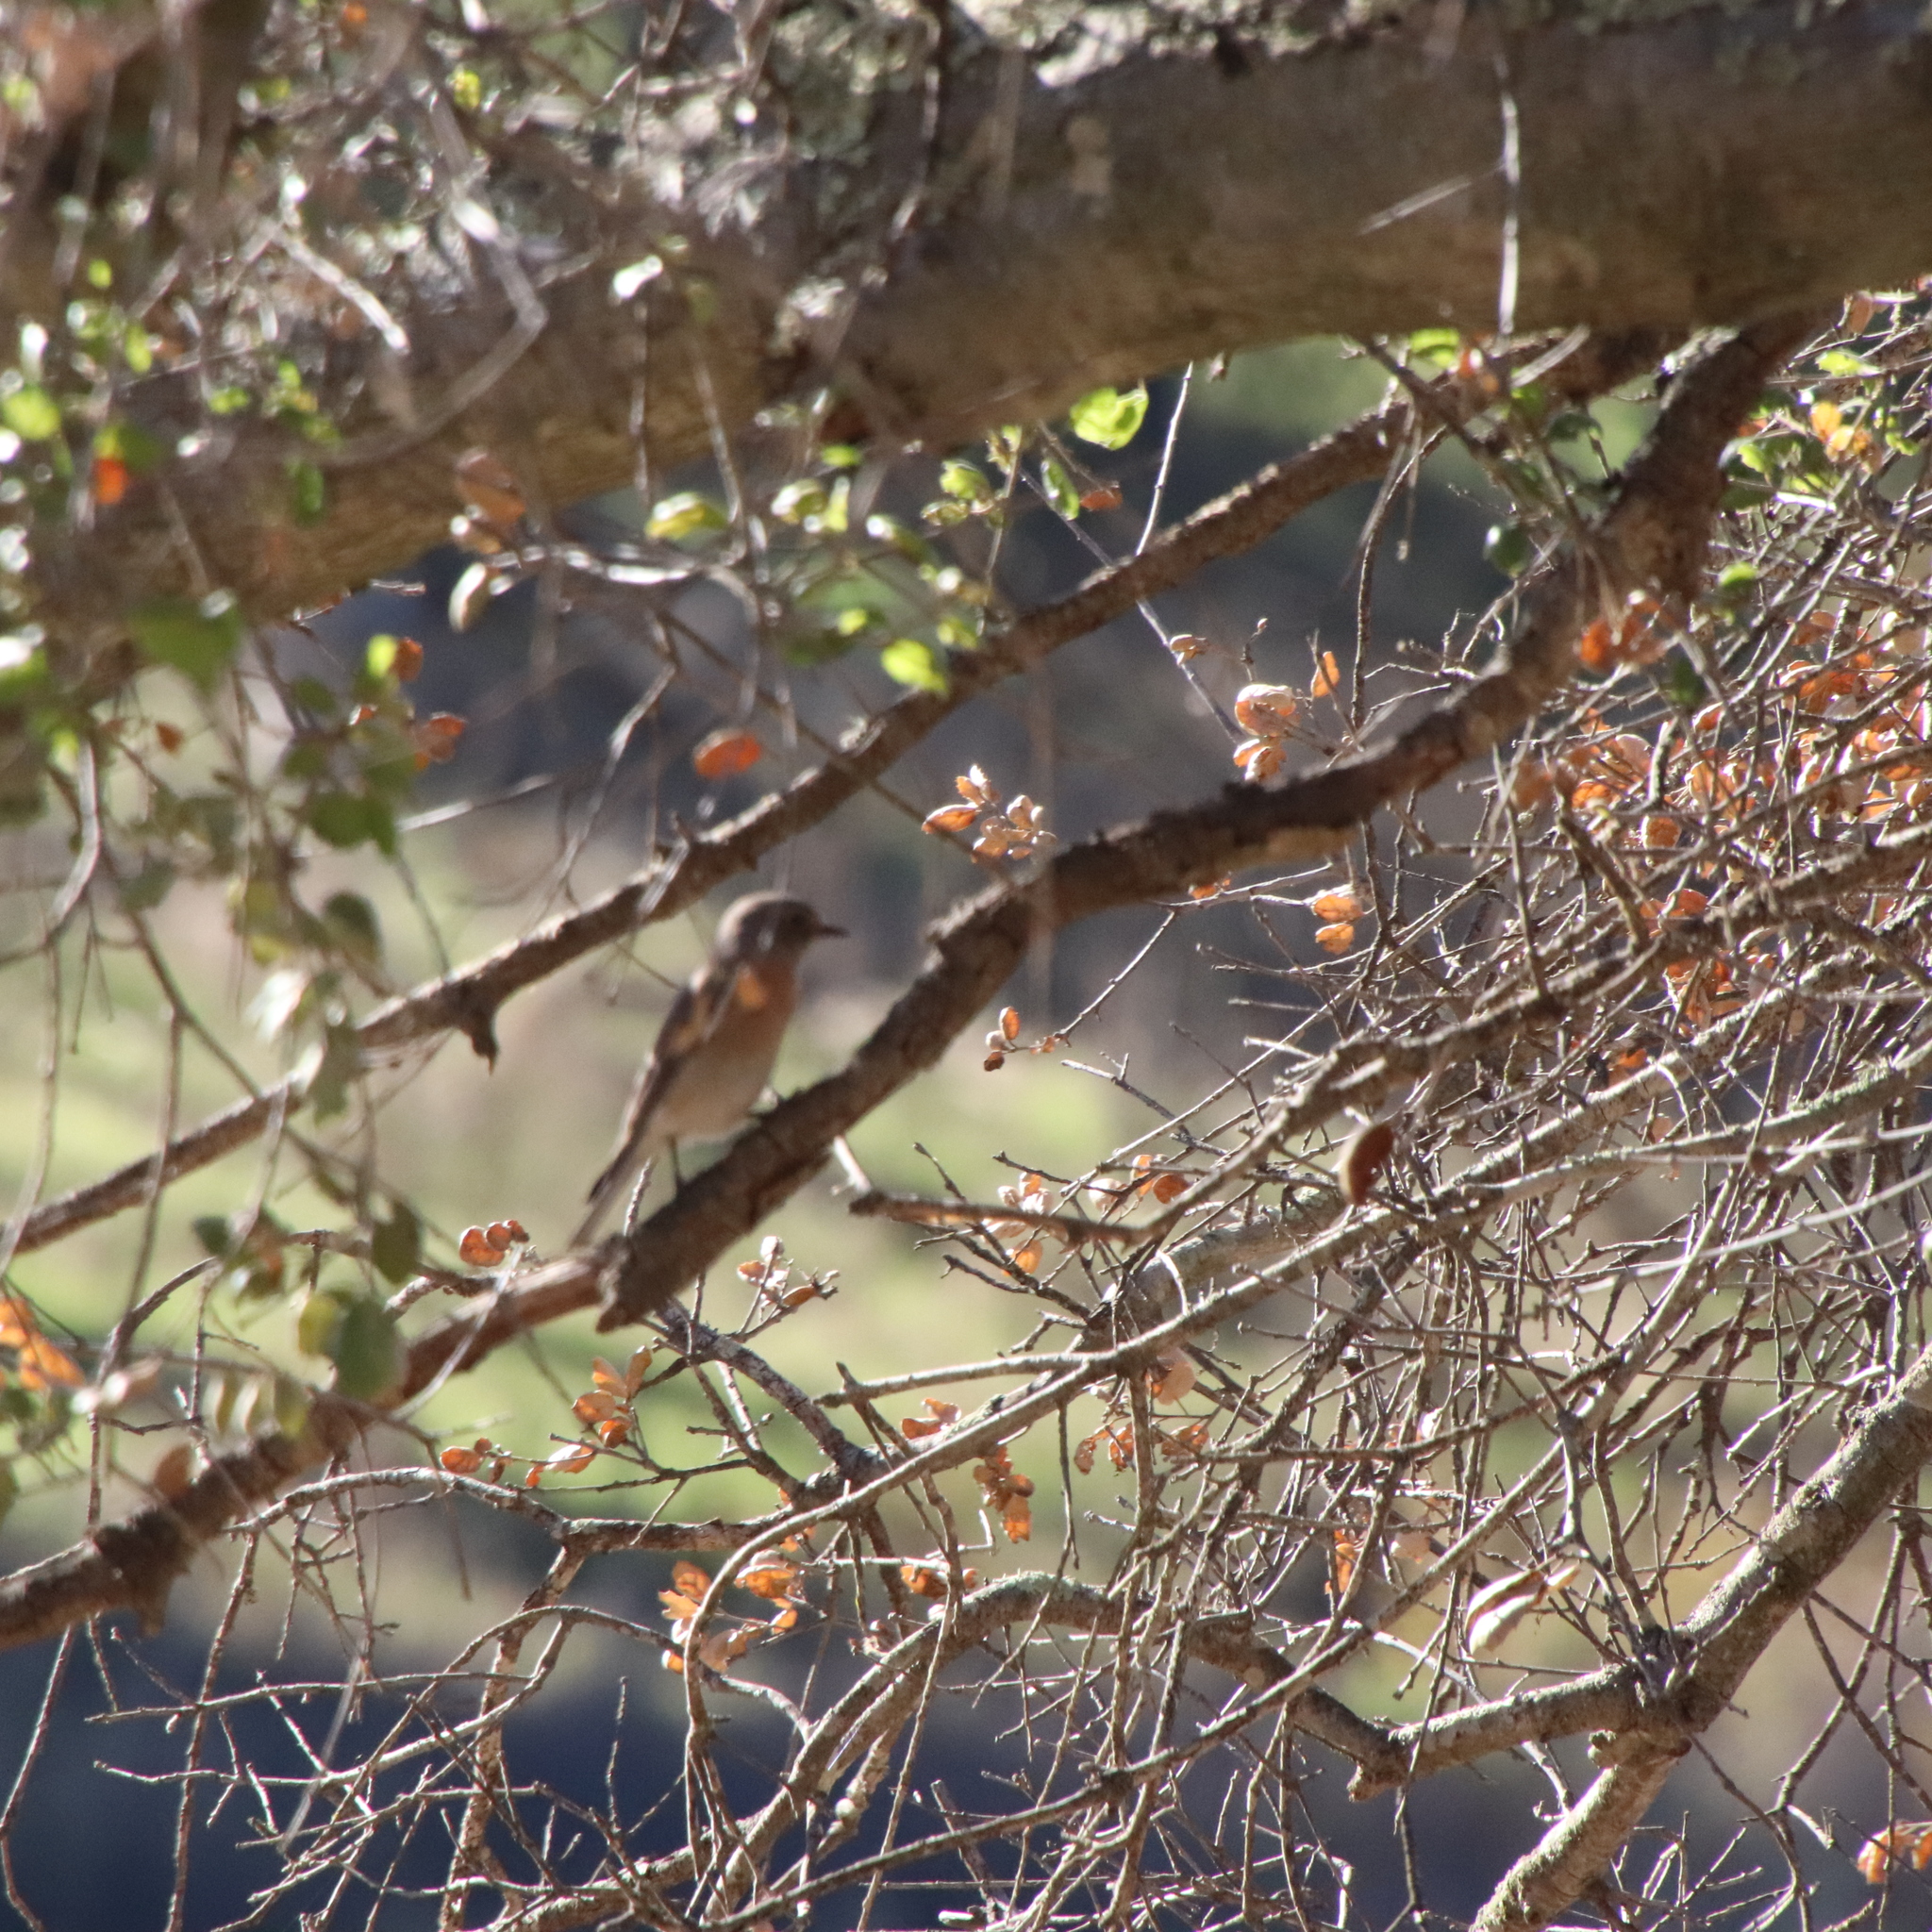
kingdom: Animalia
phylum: Chordata
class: Aves
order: Passeriformes
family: Turdidae
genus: Sialia
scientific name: Sialia mexicana
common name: Western bluebird
